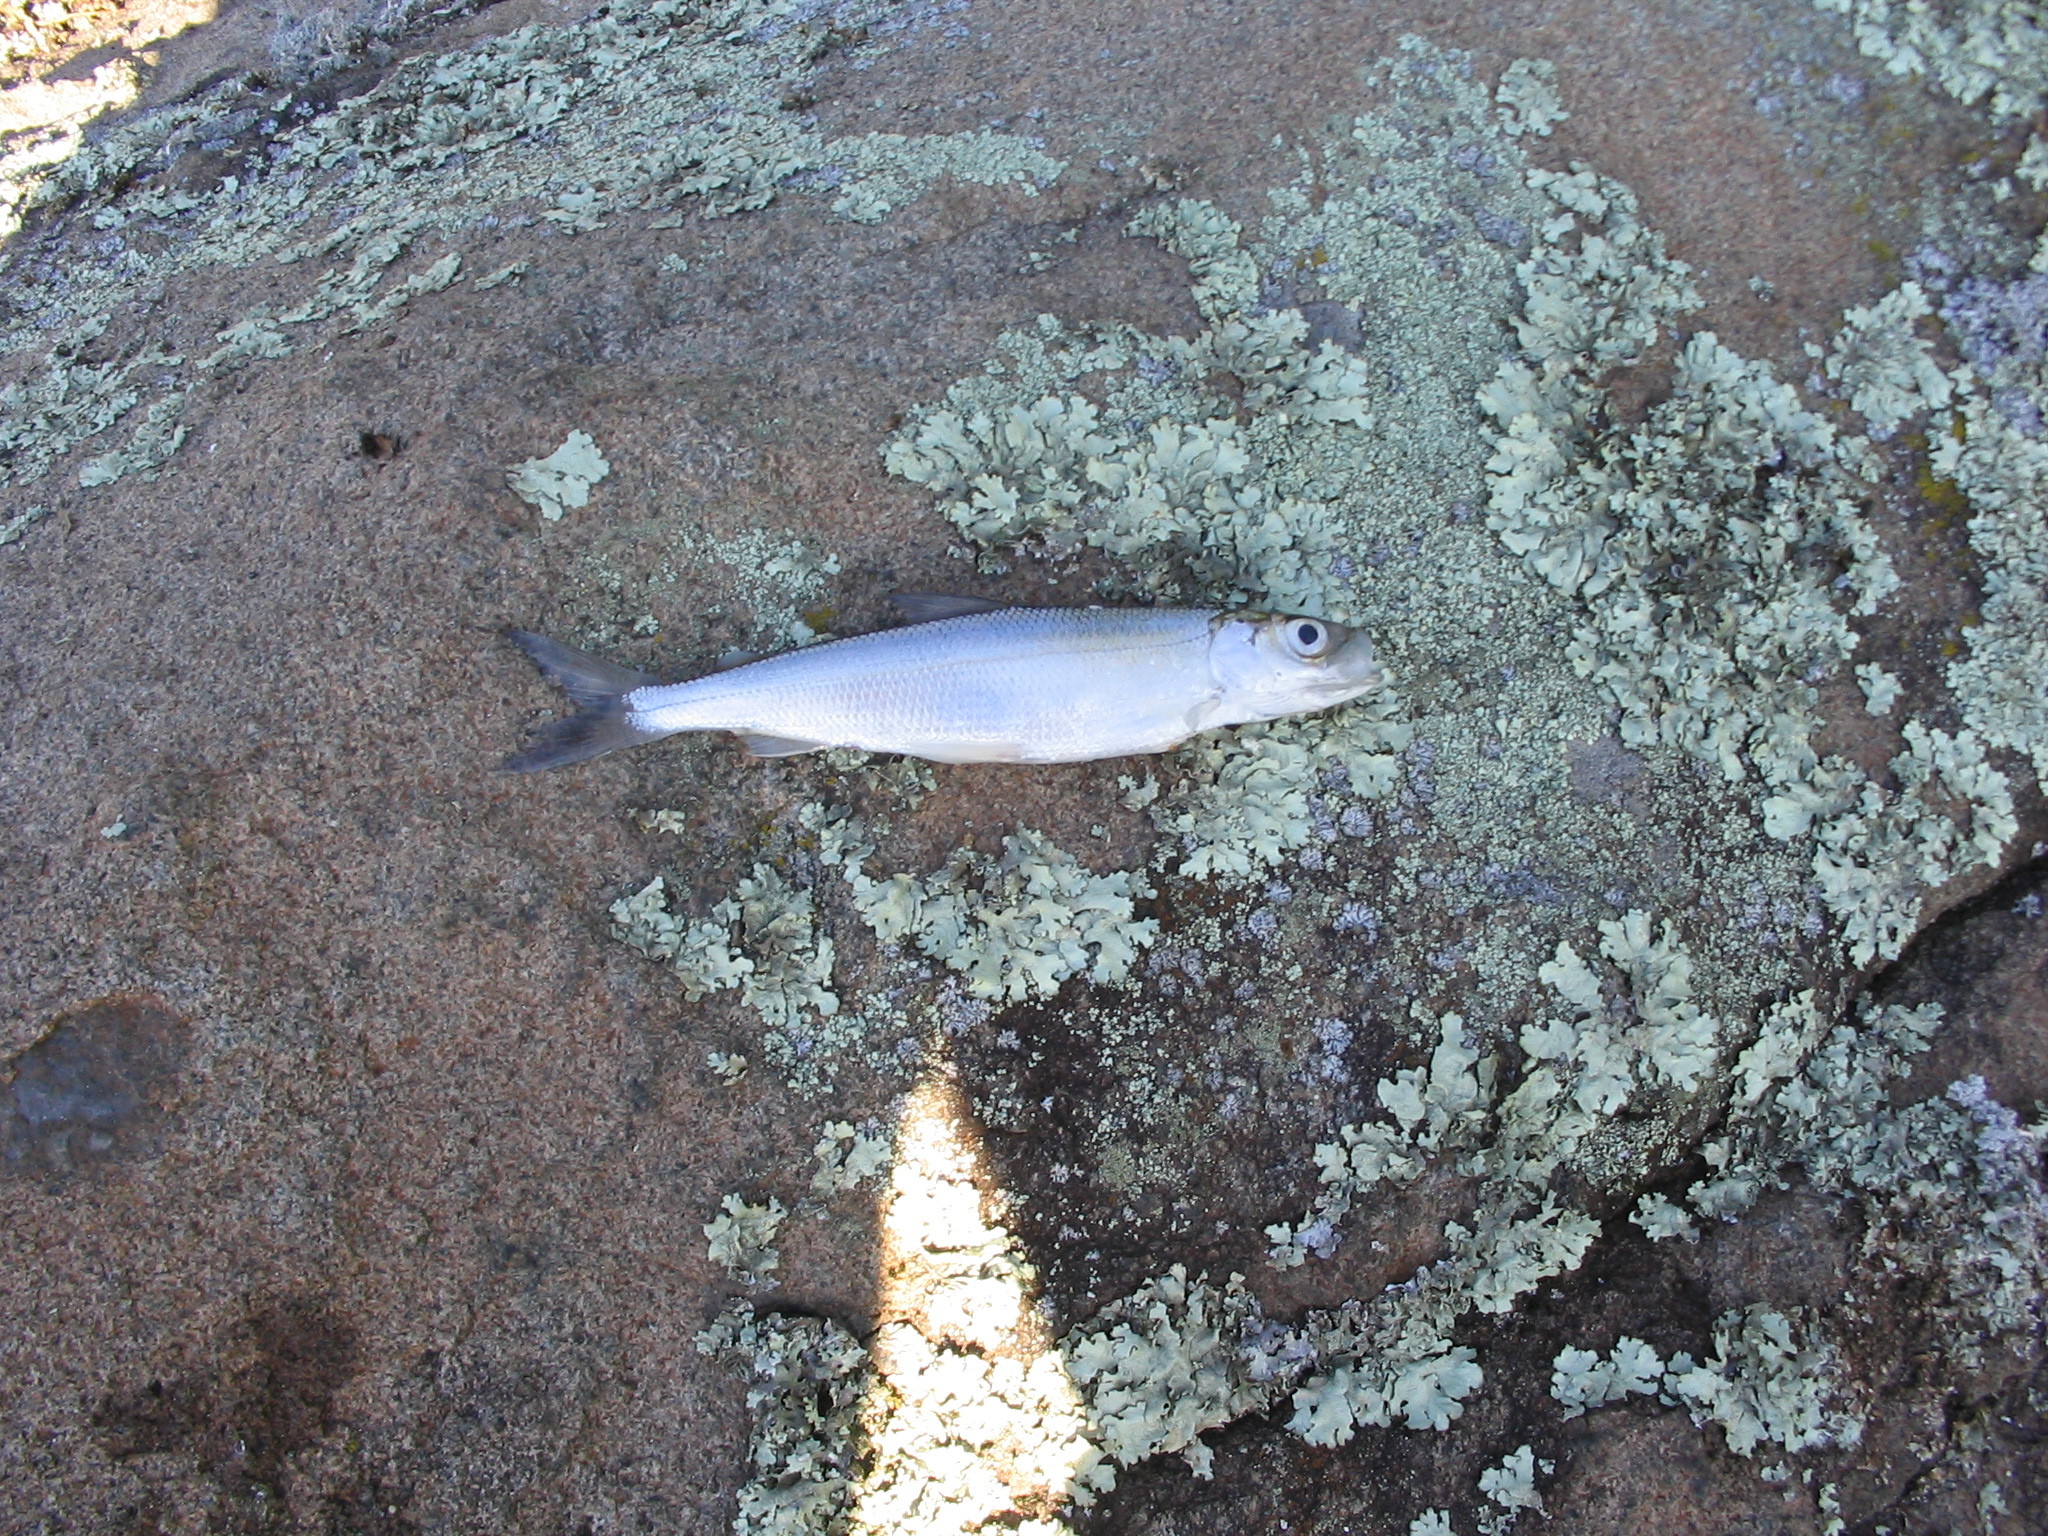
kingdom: Animalia
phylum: Chordata
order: Salmoniformes
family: Salmonidae
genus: Coregonus
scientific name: Coregonus artedi
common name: Cisco
